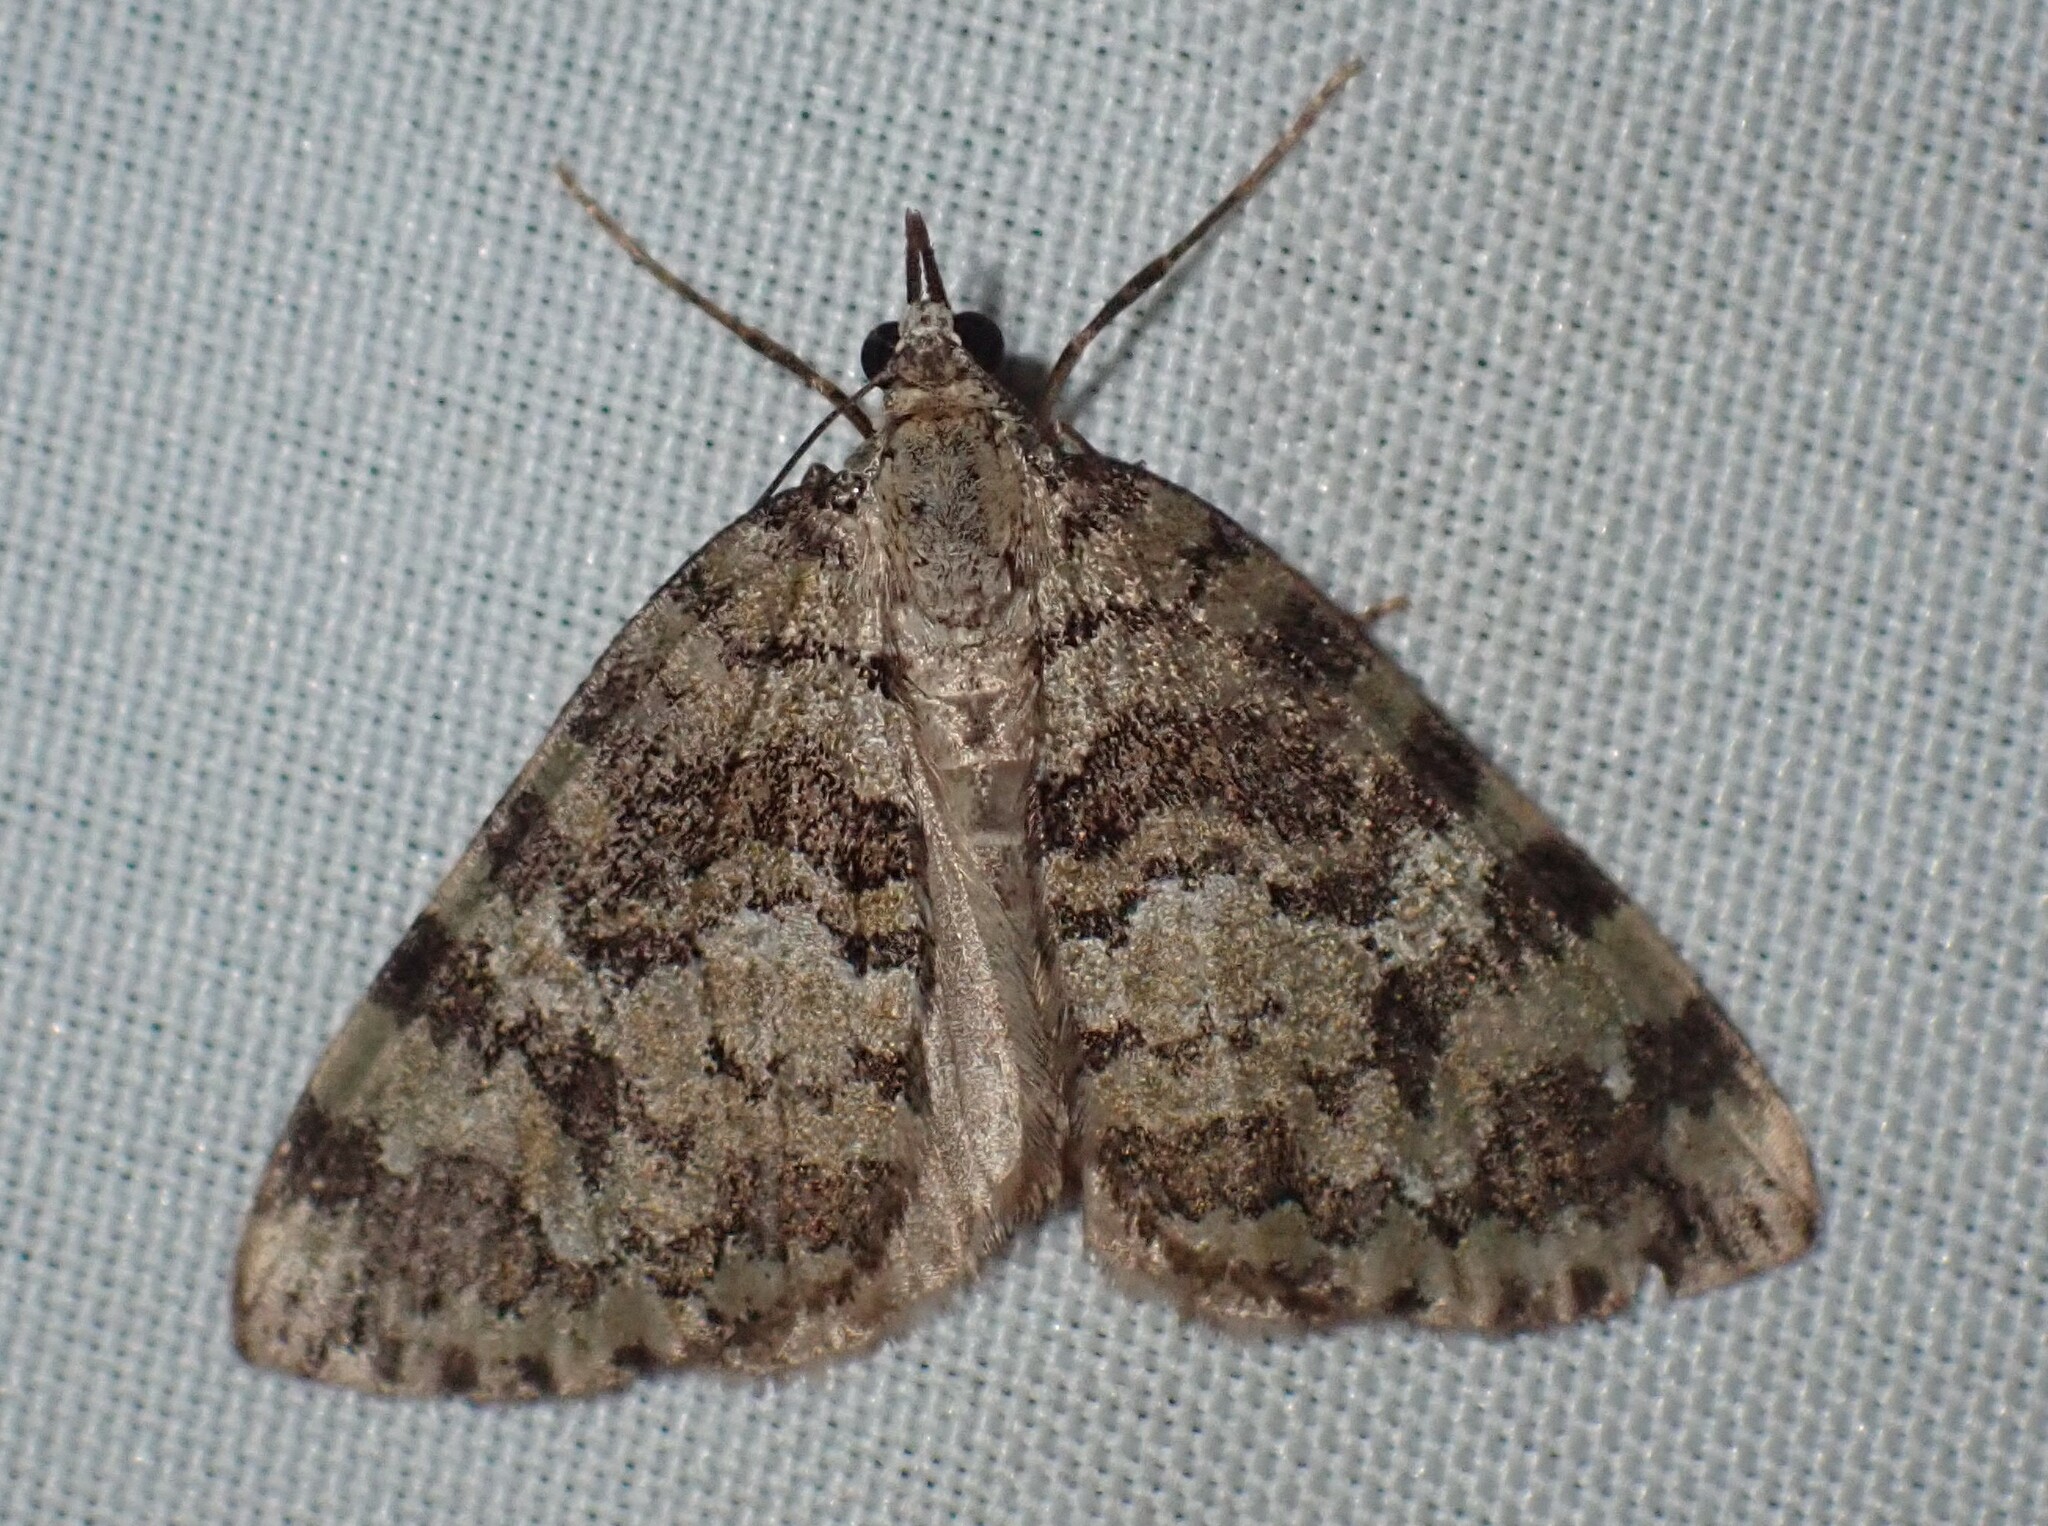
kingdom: Animalia
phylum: Arthropoda
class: Insecta
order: Lepidoptera
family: Geometridae
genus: Hydriomena
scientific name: Hydriomena speciosata
